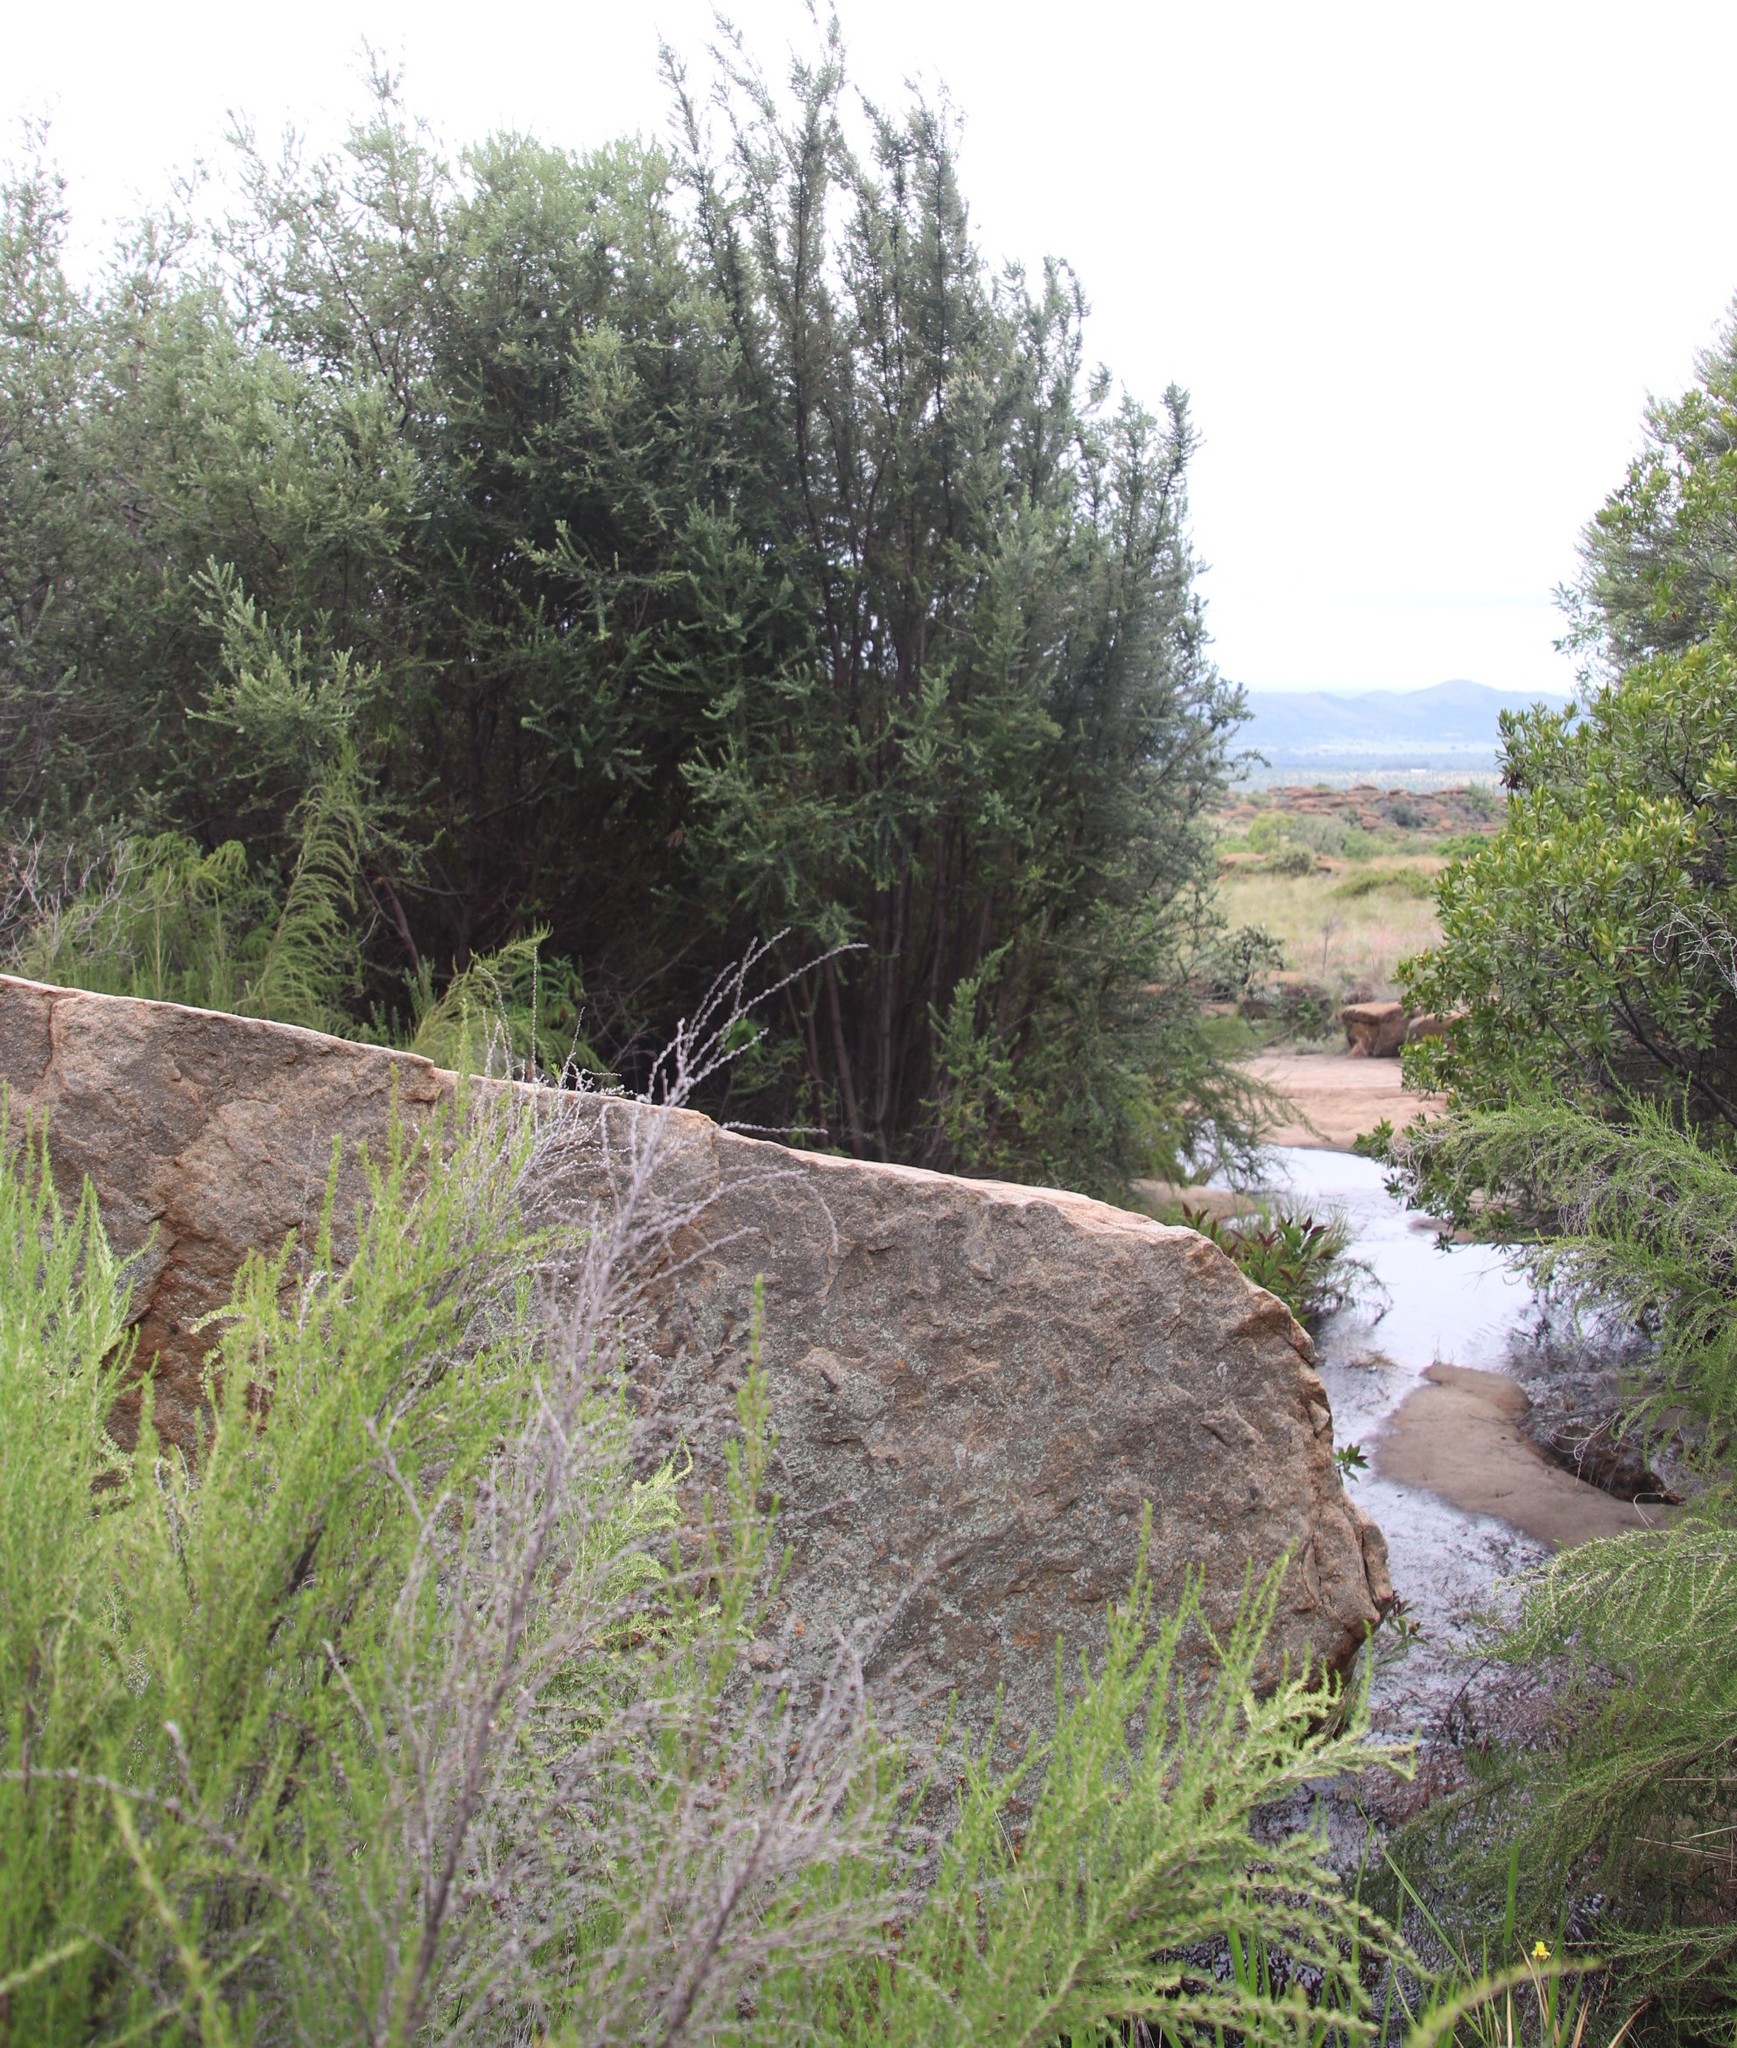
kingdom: Plantae
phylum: Tracheophyta
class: Magnoliopsida
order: Rosales
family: Rhamnaceae
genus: Phylica
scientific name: Phylica paniculata
